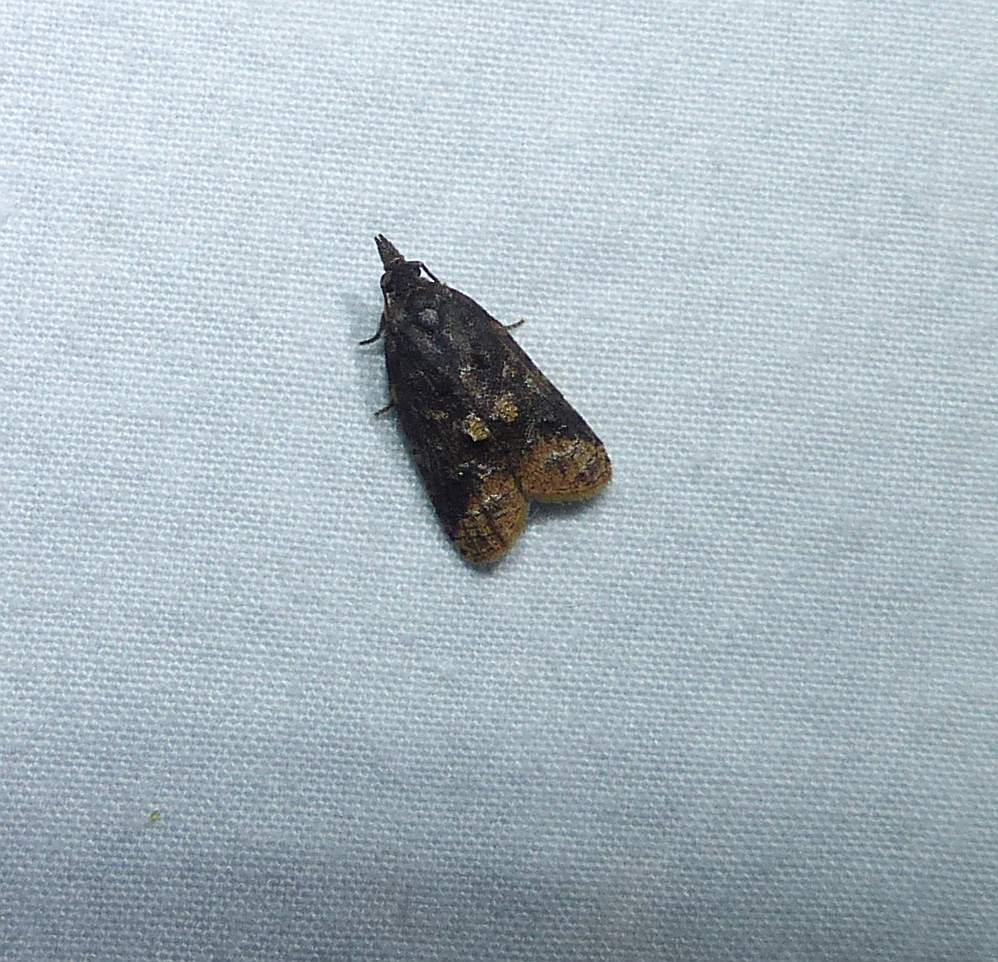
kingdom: Animalia
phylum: Arthropoda
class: Insecta
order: Lepidoptera
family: Tortricidae
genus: Platynota
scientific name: Platynota semiustana
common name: Singed platynota
